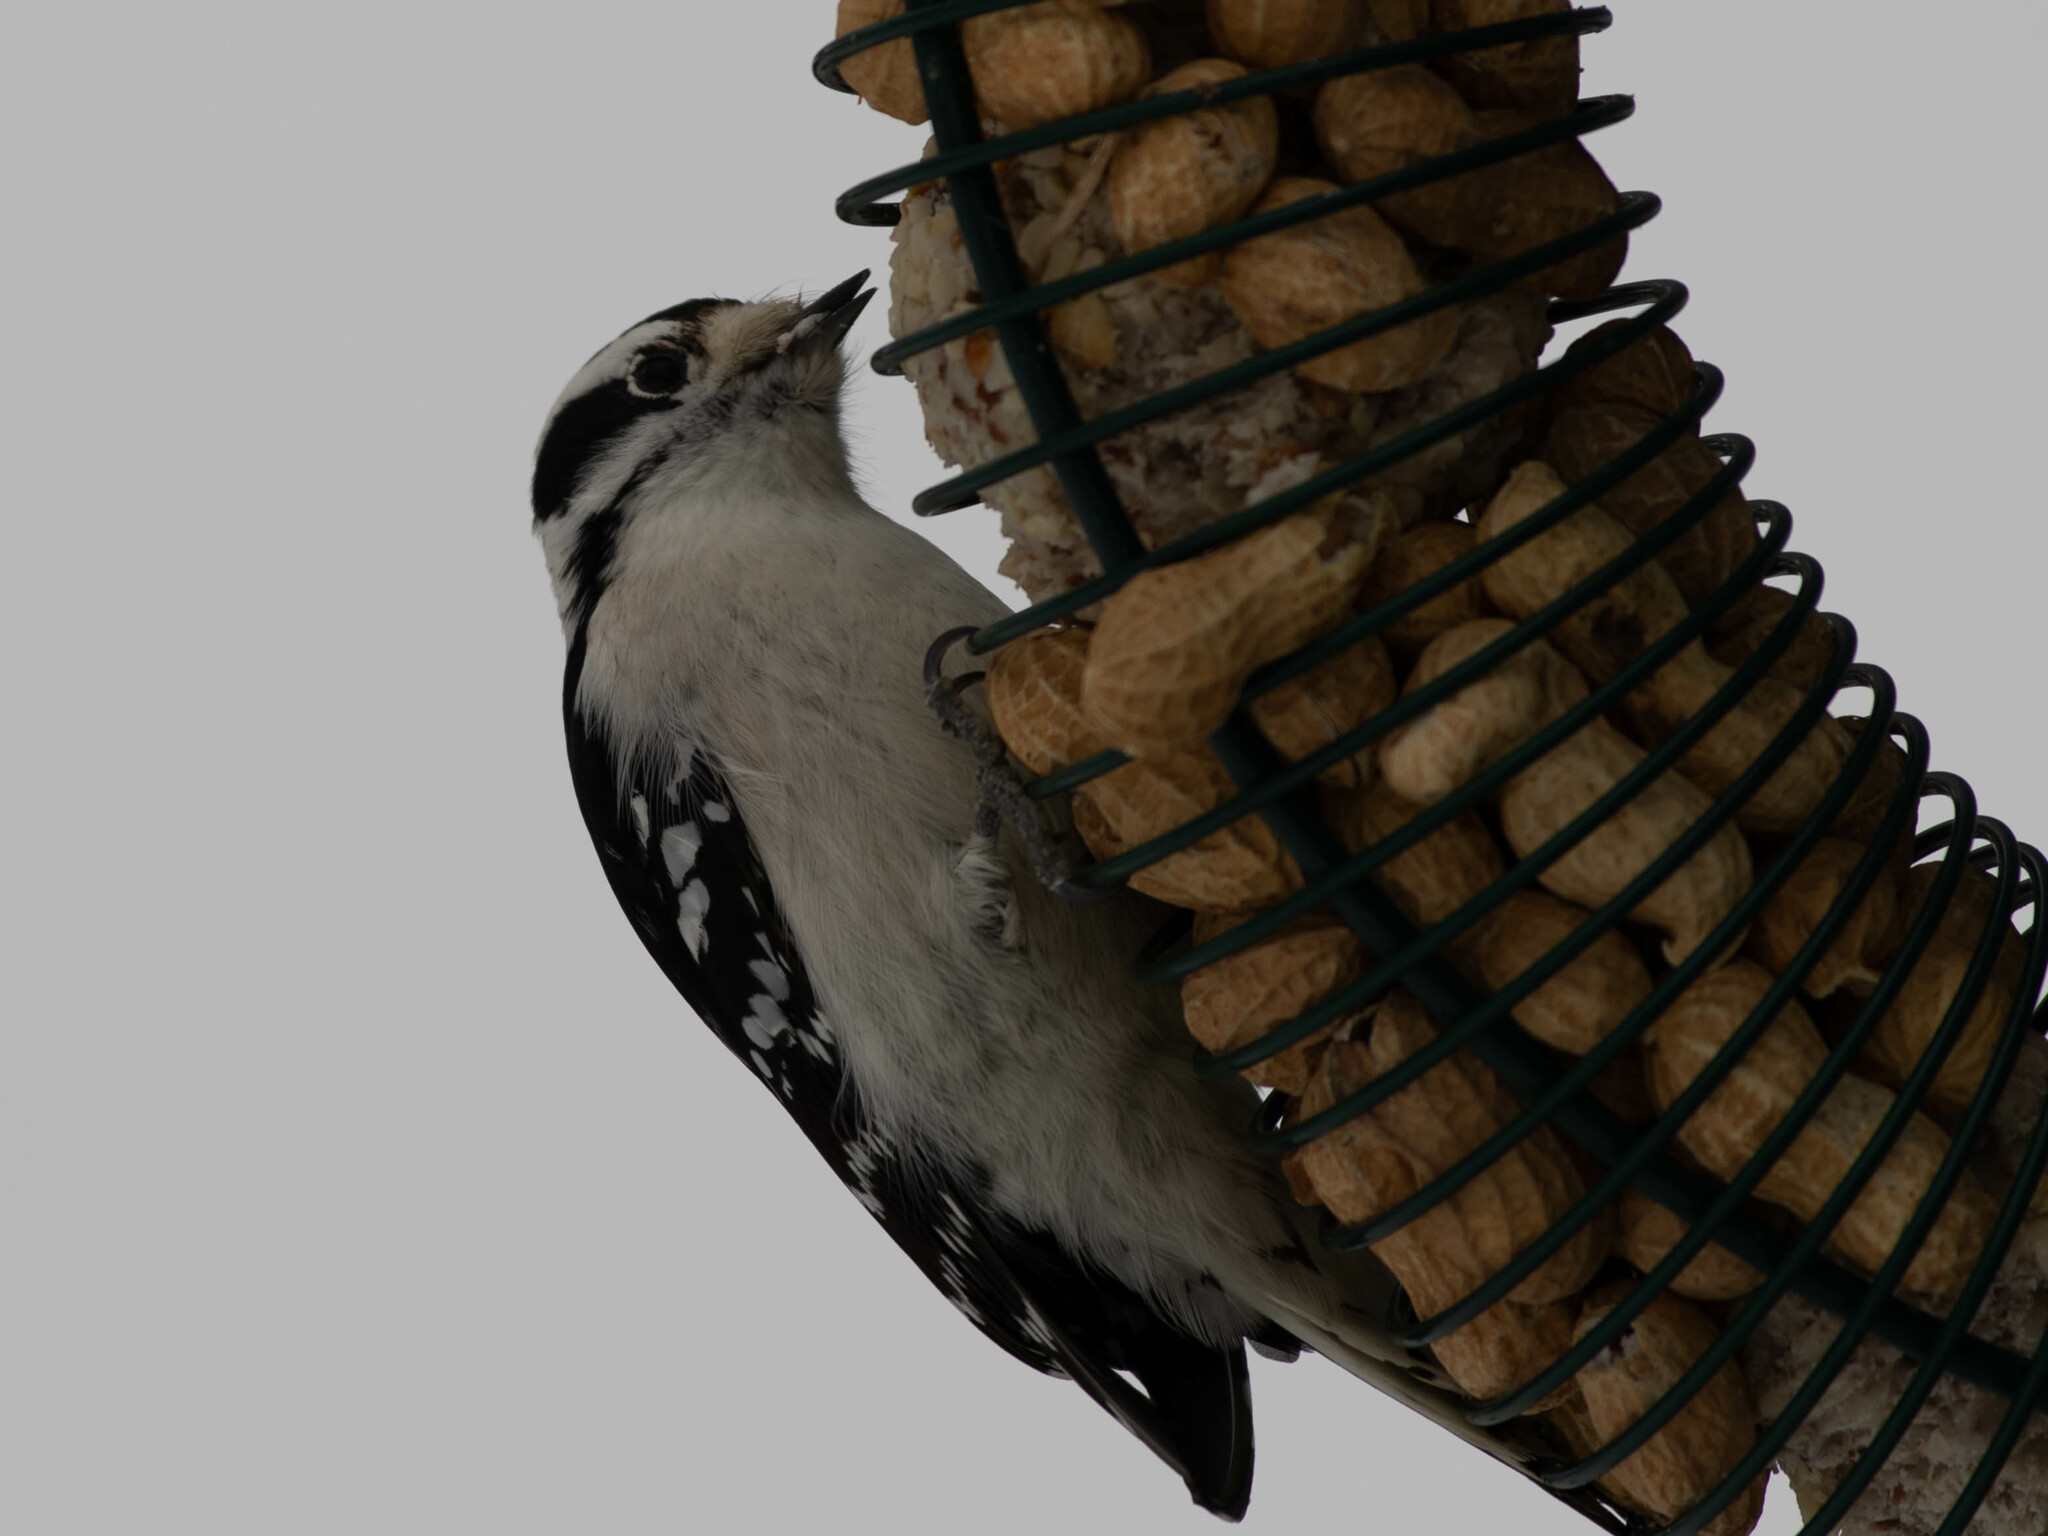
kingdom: Animalia
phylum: Chordata
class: Aves
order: Piciformes
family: Picidae
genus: Dryobates
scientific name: Dryobates pubescens
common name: Downy woodpecker
